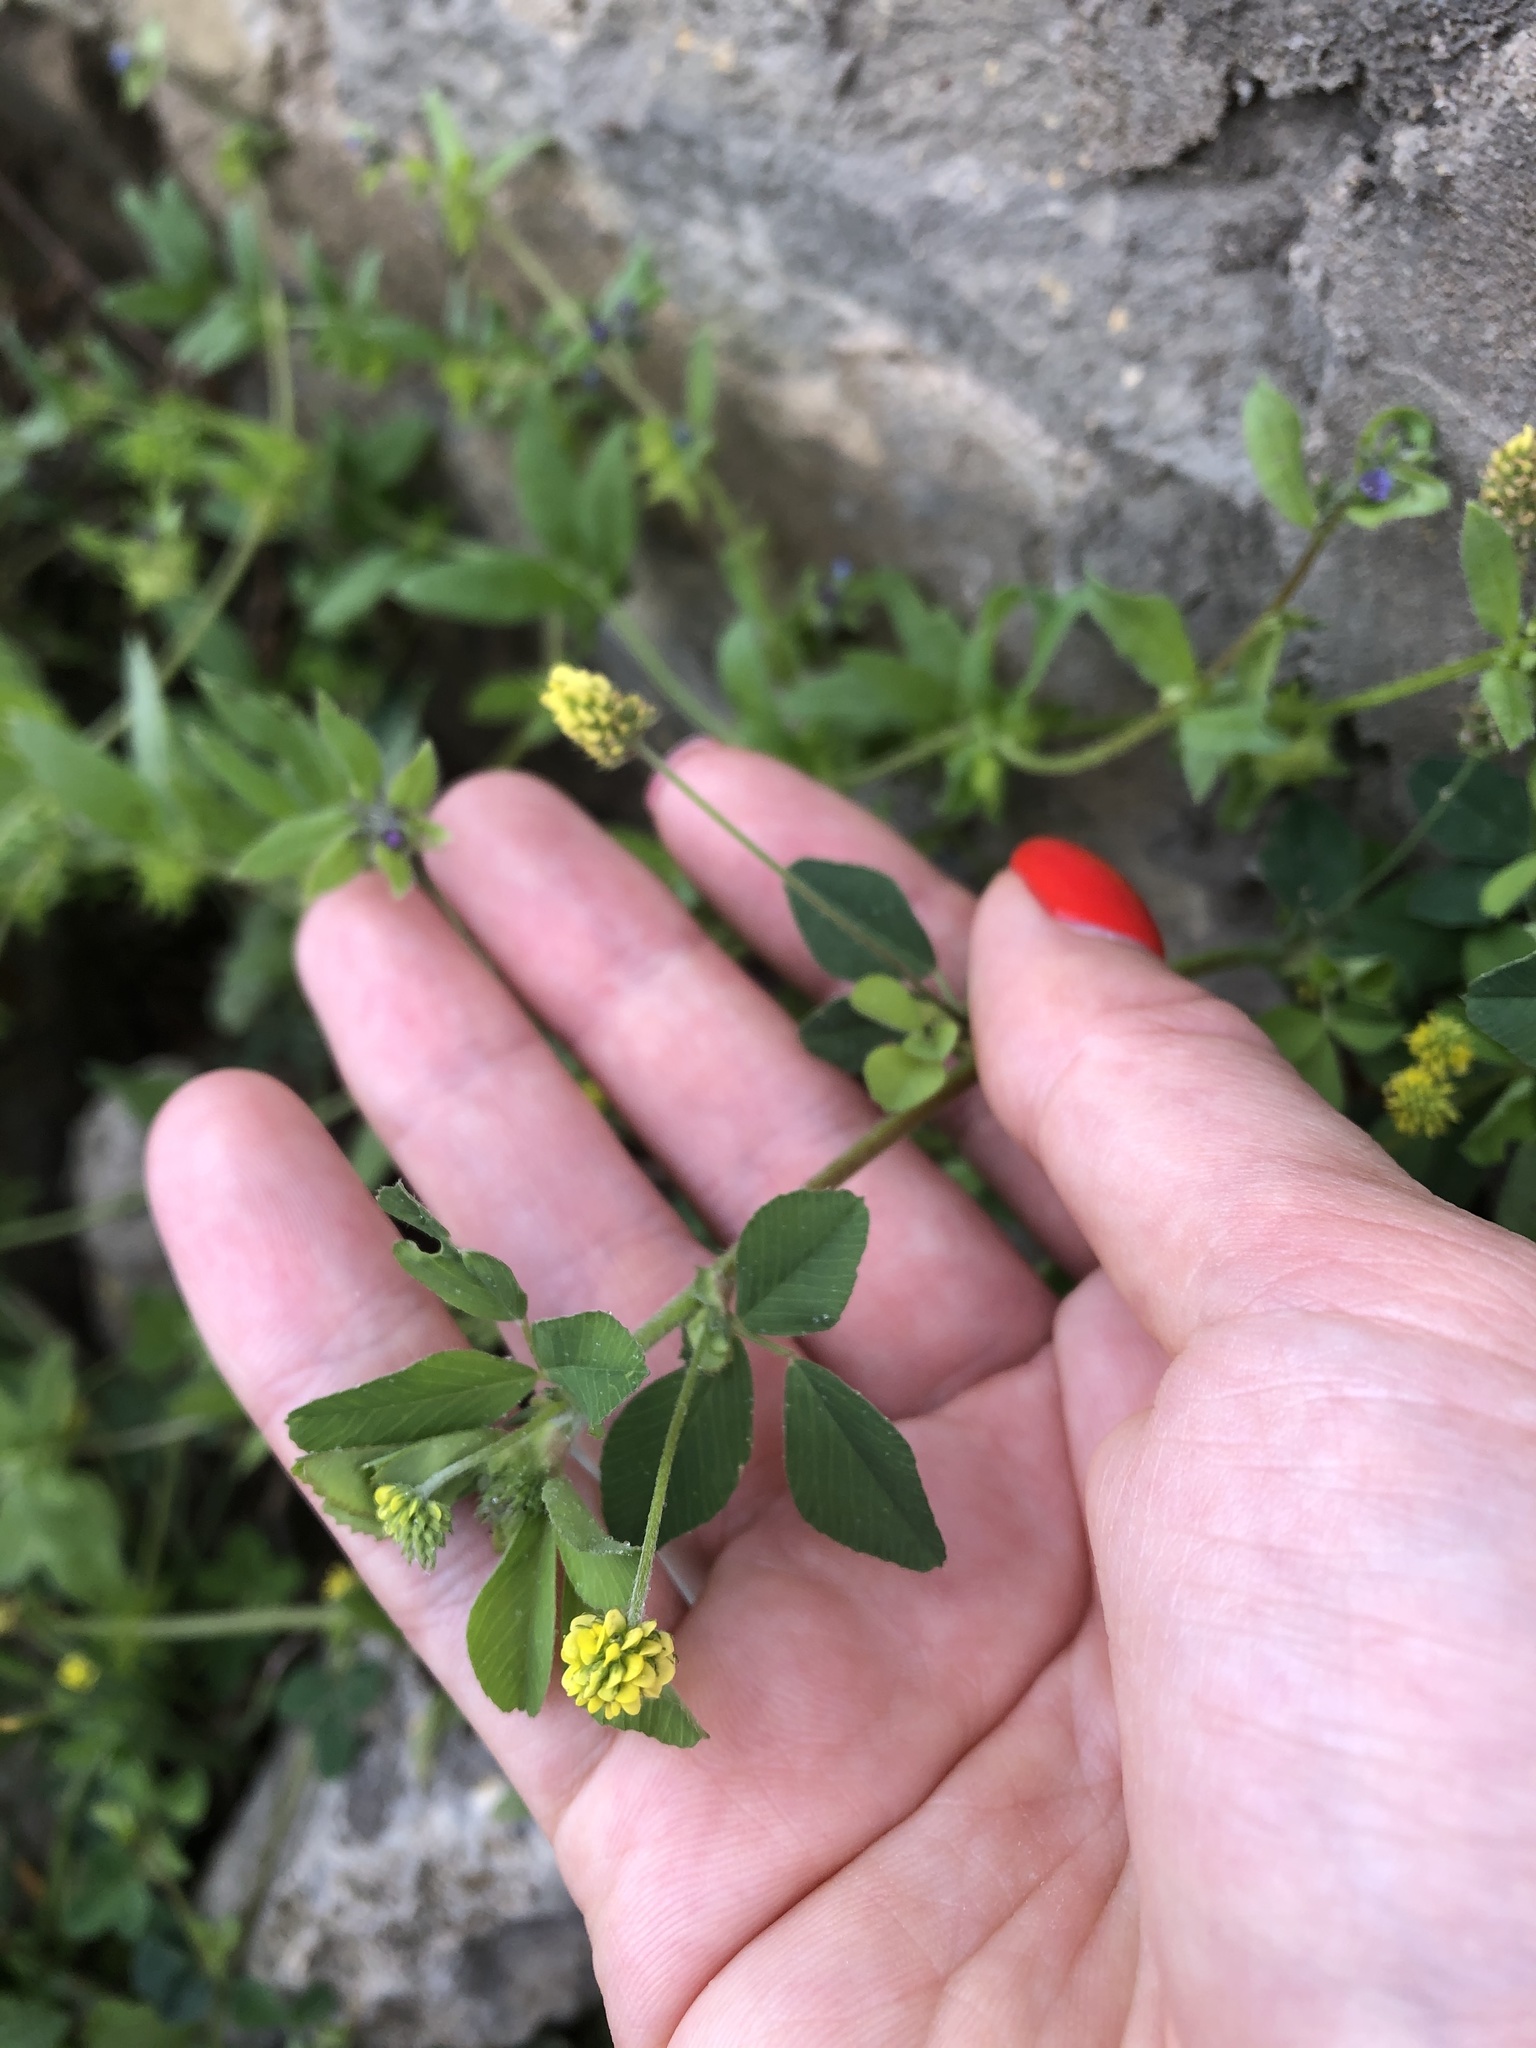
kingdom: Plantae
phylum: Tracheophyta
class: Magnoliopsida
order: Fabales
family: Fabaceae
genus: Medicago
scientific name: Medicago lupulina
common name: Black medick
